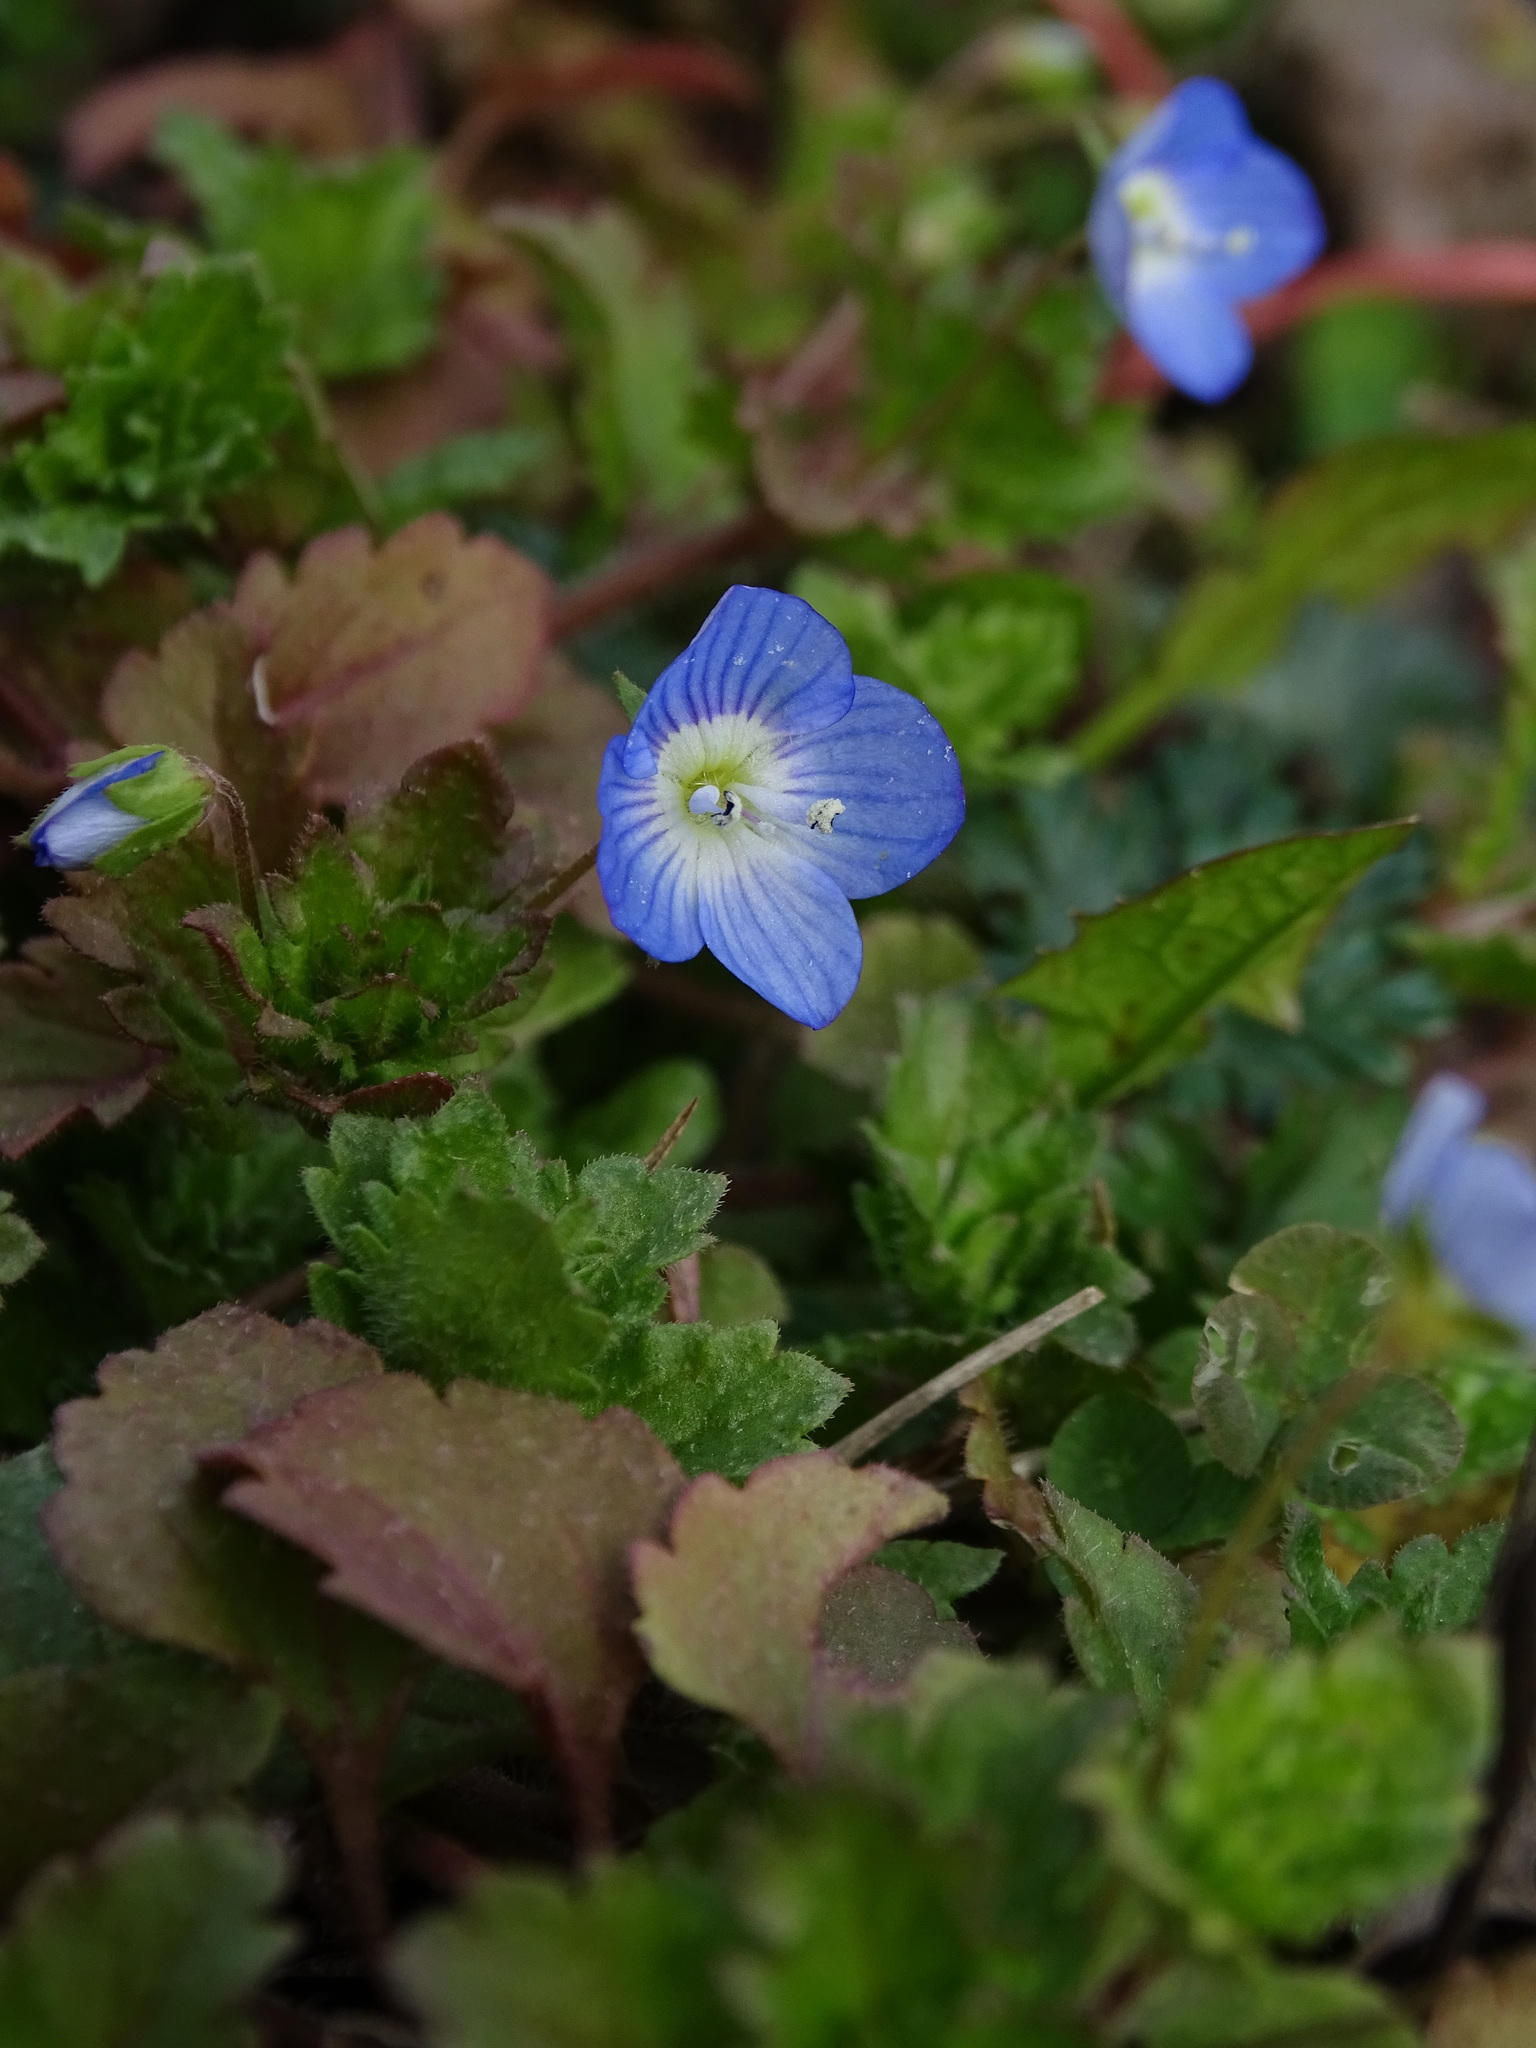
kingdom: Plantae
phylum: Tracheophyta
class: Magnoliopsida
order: Lamiales
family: Plantaginaceae
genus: Veronica
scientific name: Veronica persica
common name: Common field-speedwell
